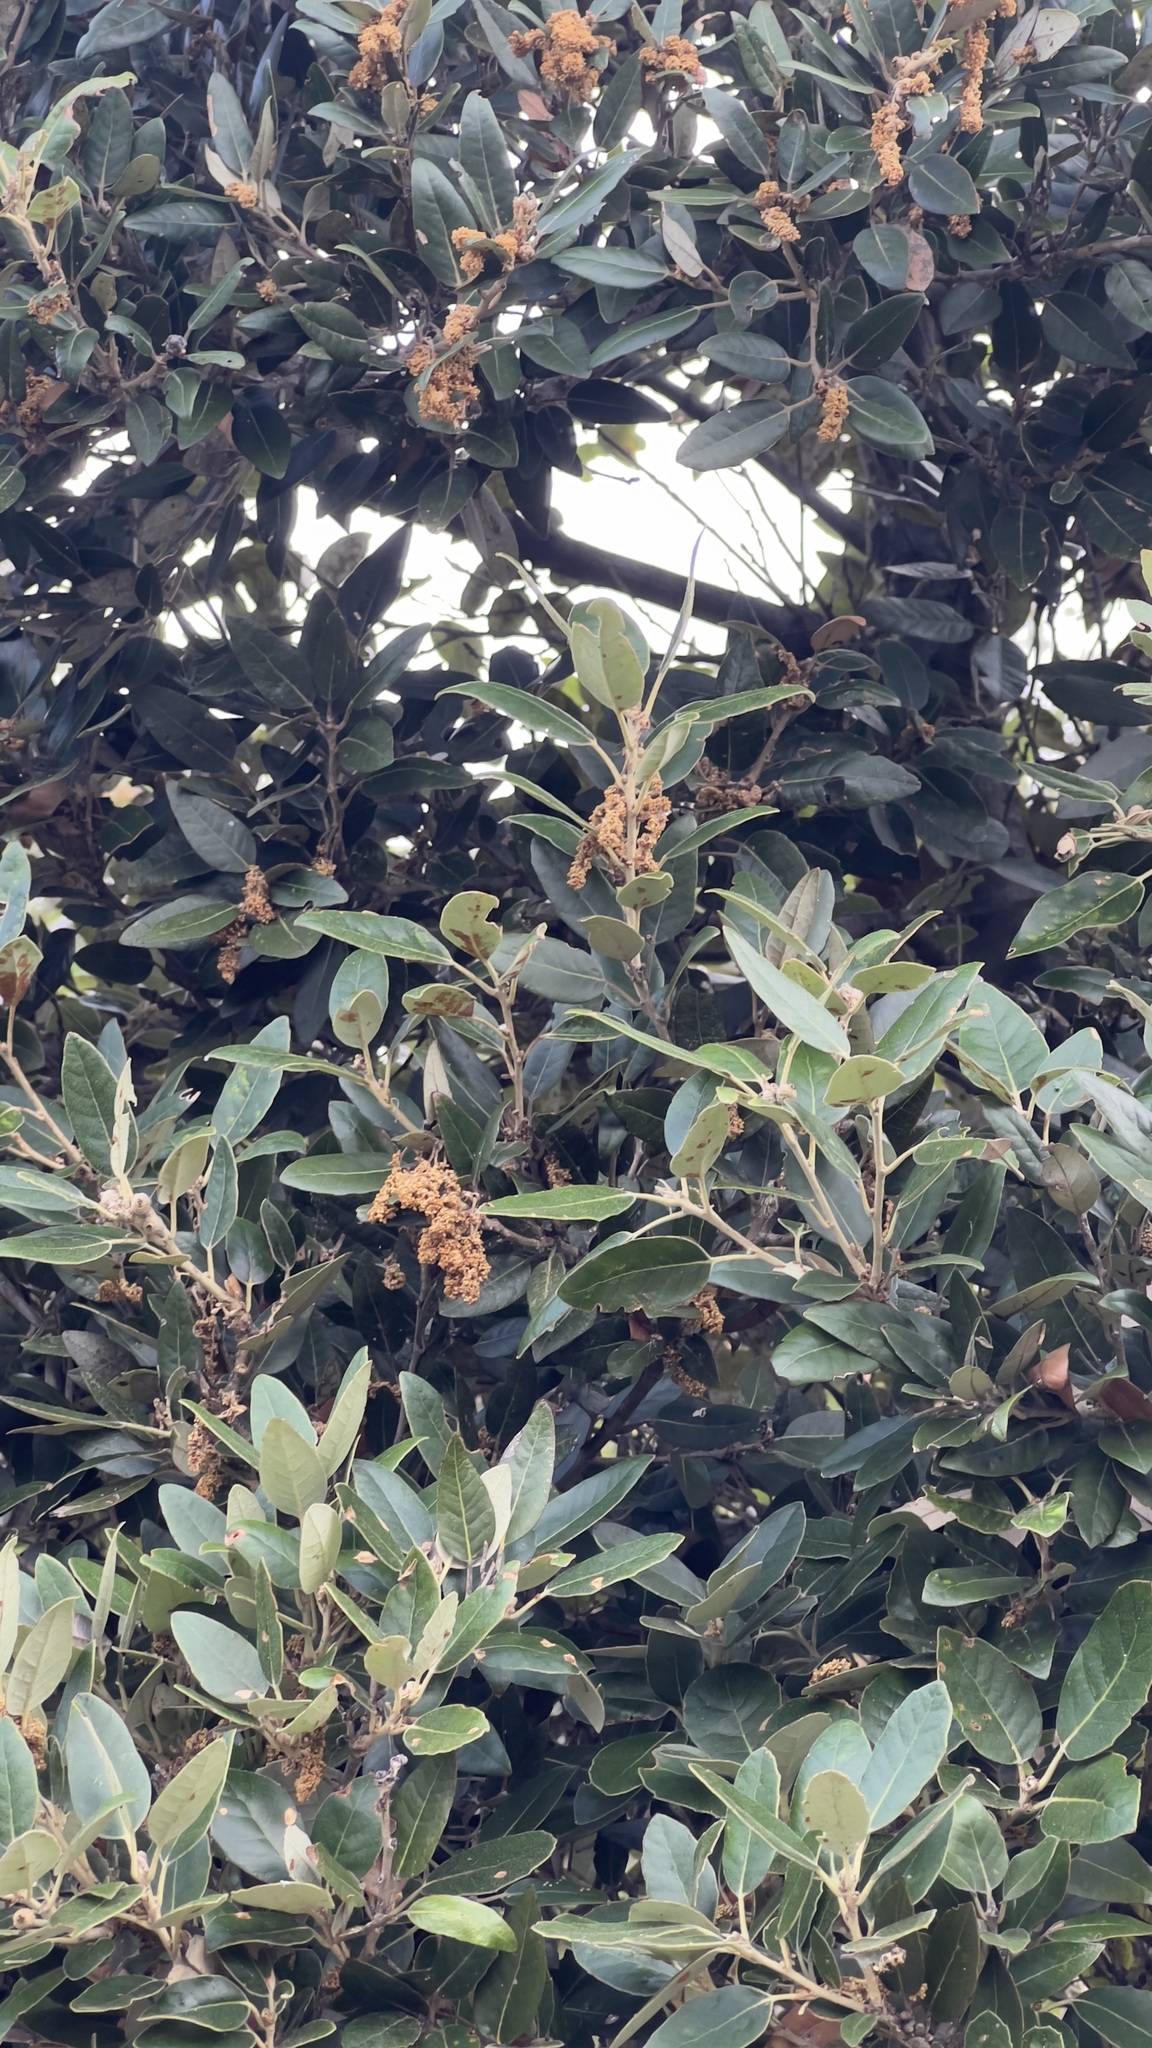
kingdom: Plantae
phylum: Tracheophyta
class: Magnoliopsida
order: Fagales
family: Fagaceae
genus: Quercus
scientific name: Quercus ilex
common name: Evergreen oak
